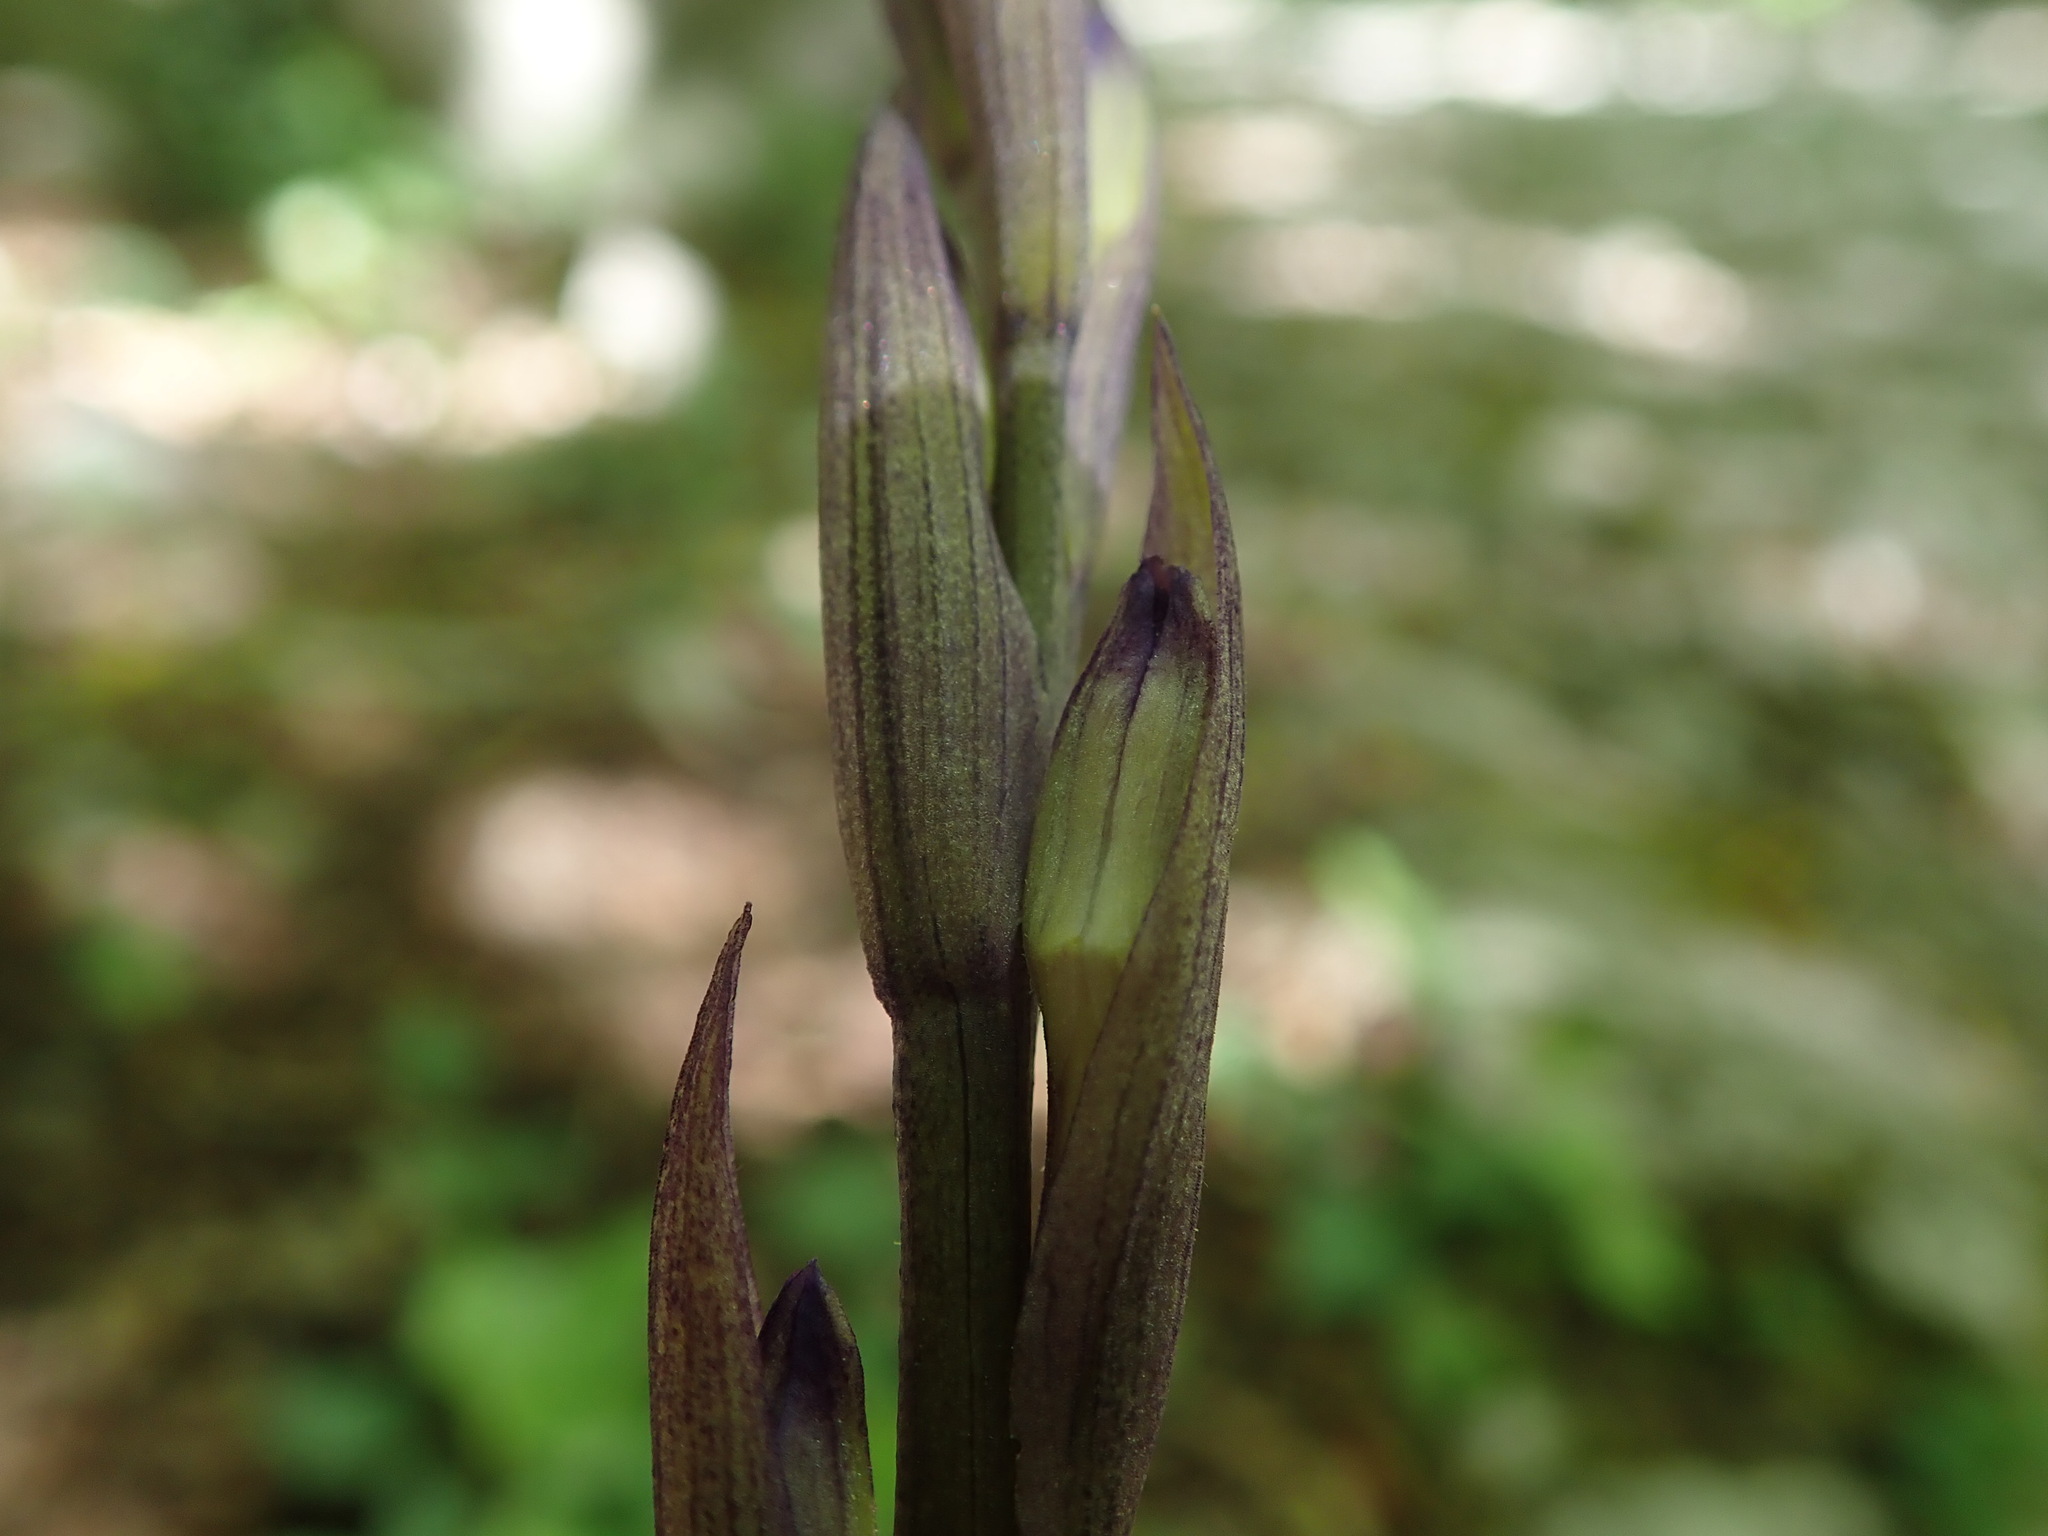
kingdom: Plantae
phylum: Tracheophyta
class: Liliopsida
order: Asparagales
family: Orchidaceae
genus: Limodorum
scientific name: Limodorum abortivum
